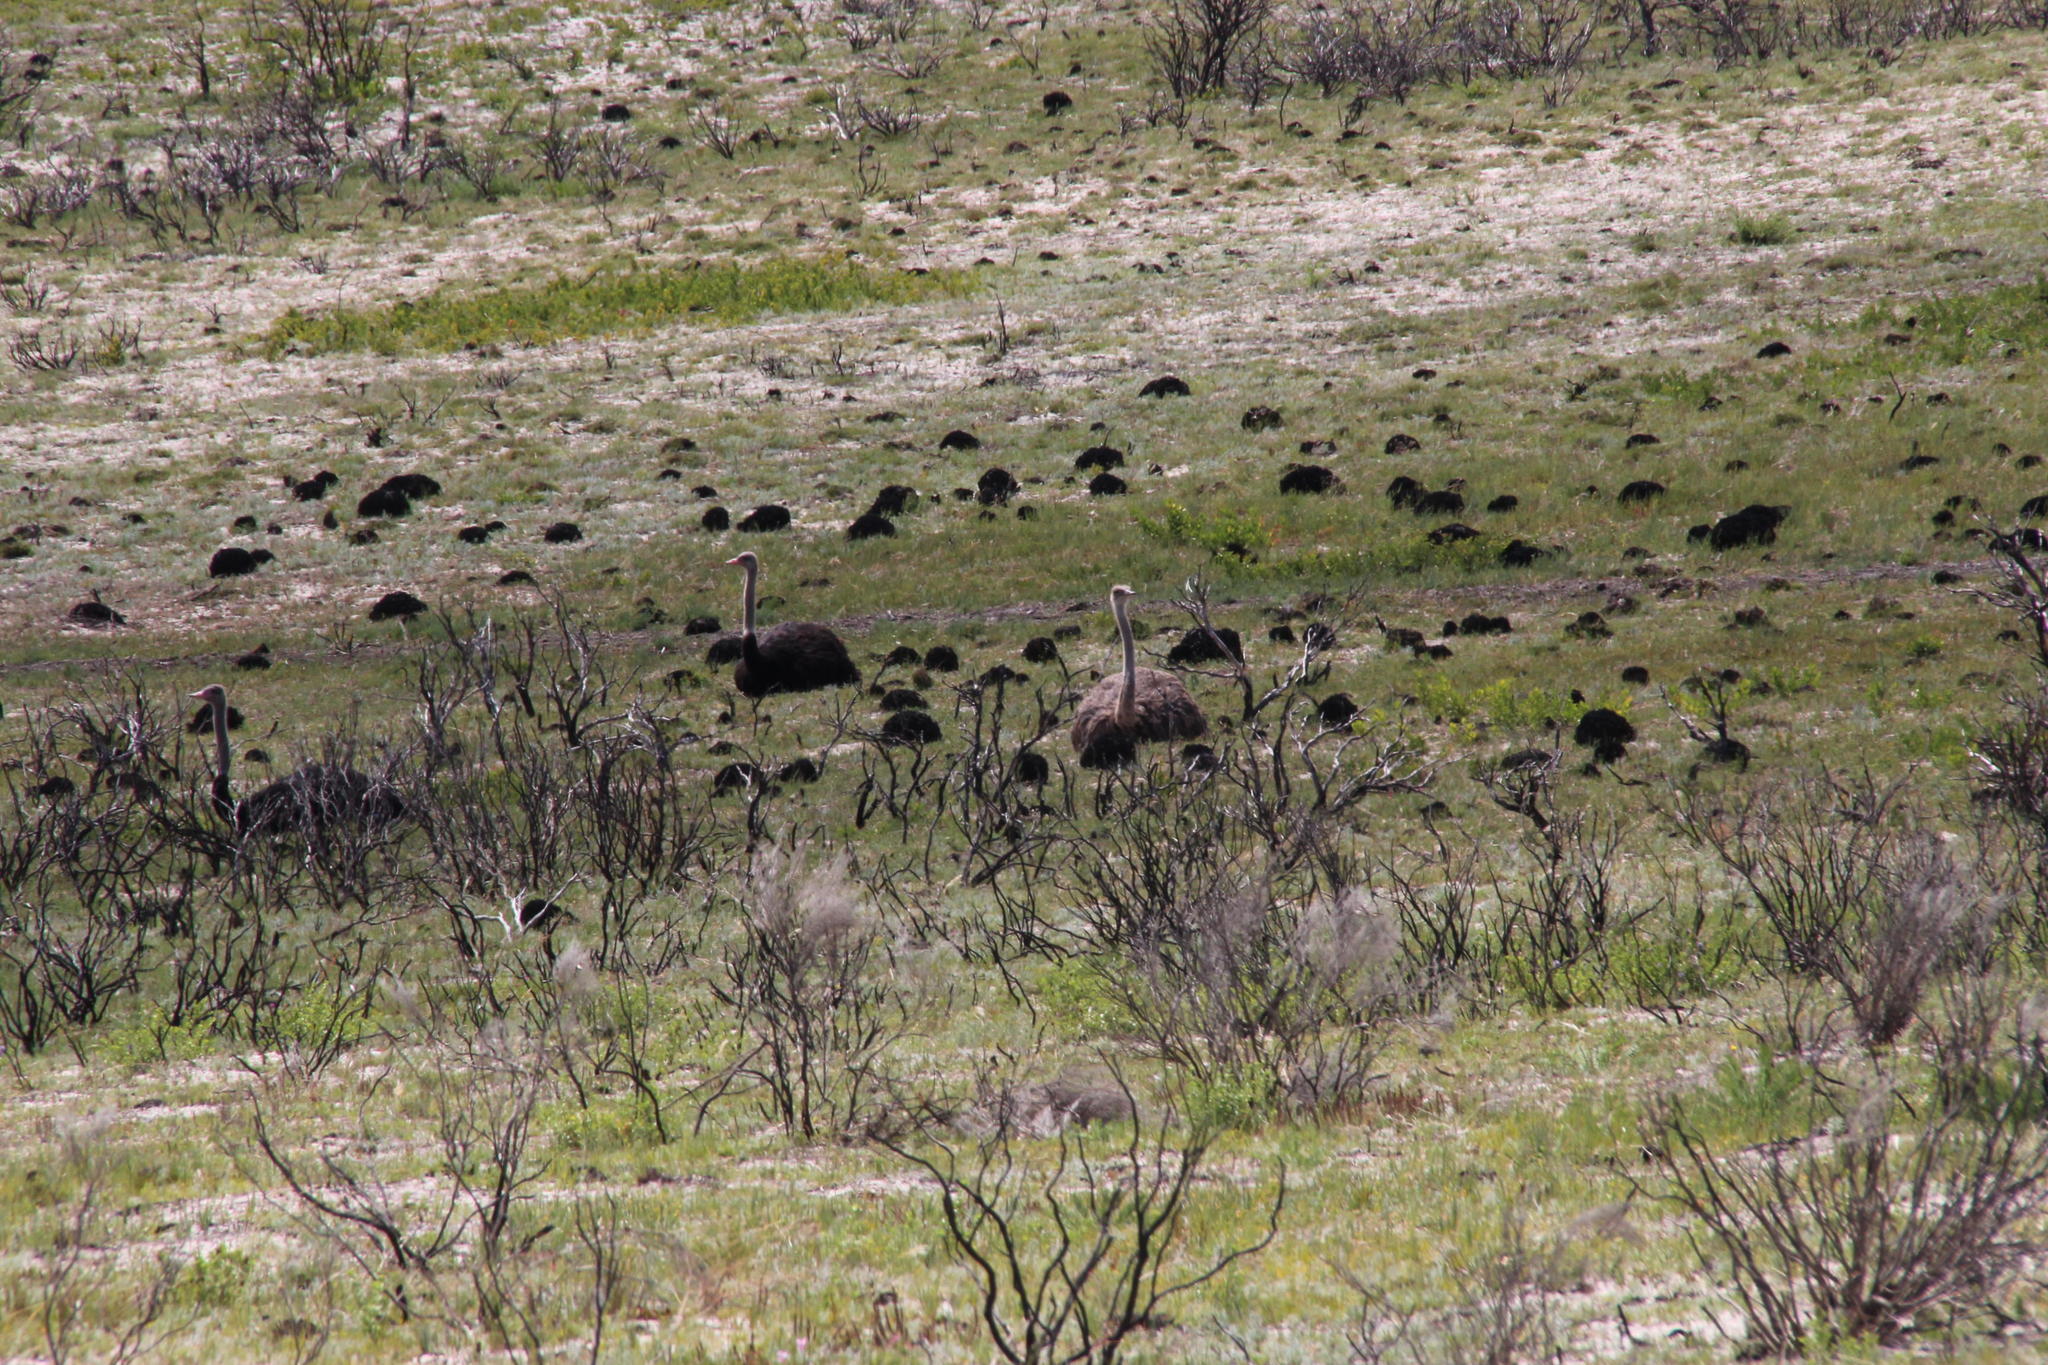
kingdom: Animalia
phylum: Chordata
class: Aves
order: Struthioniformes
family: Struthionidae
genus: Struthio
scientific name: Struthio camelus
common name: Common ostrich
